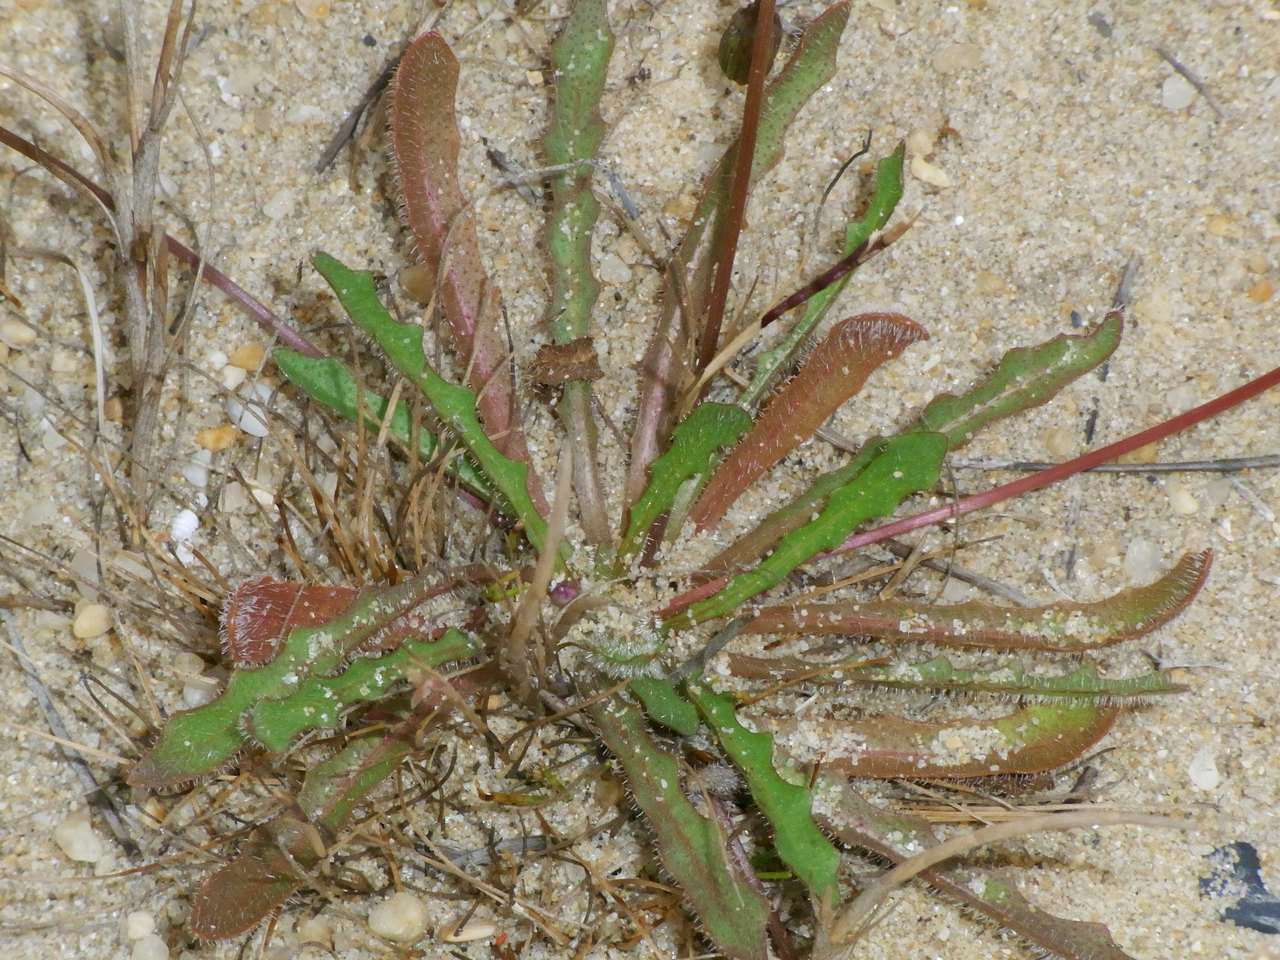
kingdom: Plantae
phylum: Tracheophyta
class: Magnoliopsida
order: Asterales
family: Asteraceae
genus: Thrincia
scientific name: Thrincia saxatilis
